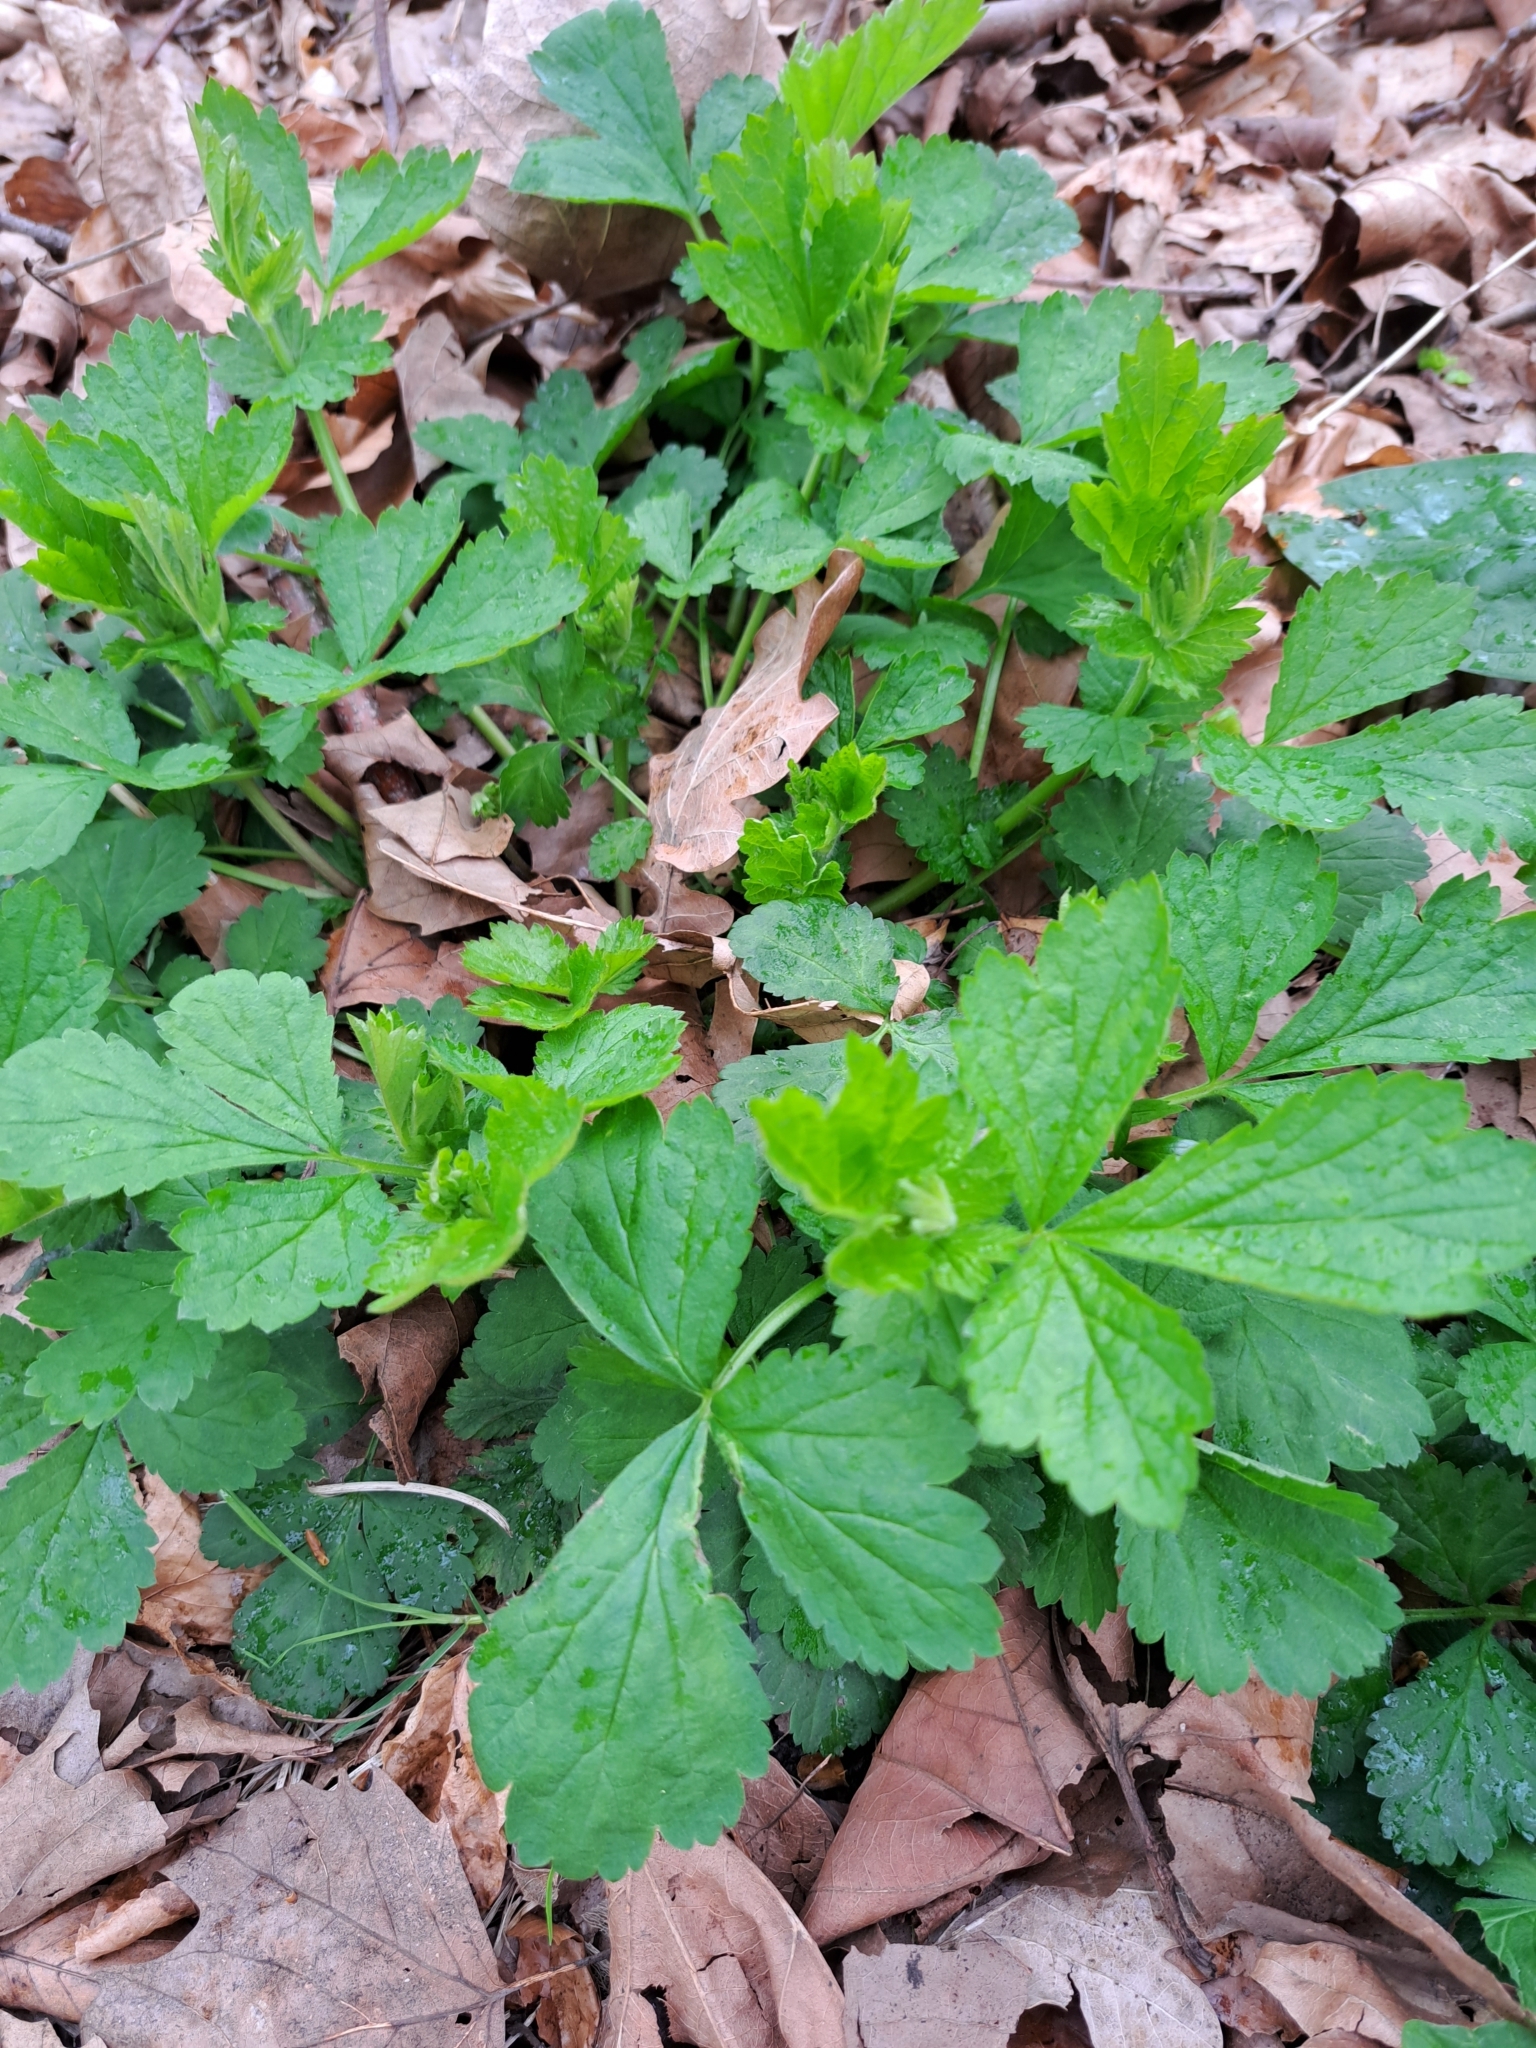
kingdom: Plantae
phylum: Tracheophyta
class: Magnoliopsida
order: Rosales
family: Rosaceae
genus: Geum
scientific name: Geum urbanum
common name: Wood avens
